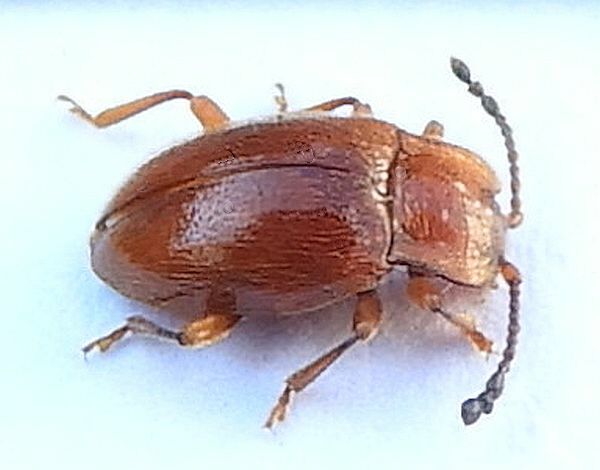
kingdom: Animalia
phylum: Arthropoda
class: Insecta
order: Coleoptera
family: Endomychidae
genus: Danae
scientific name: Danae testacea
